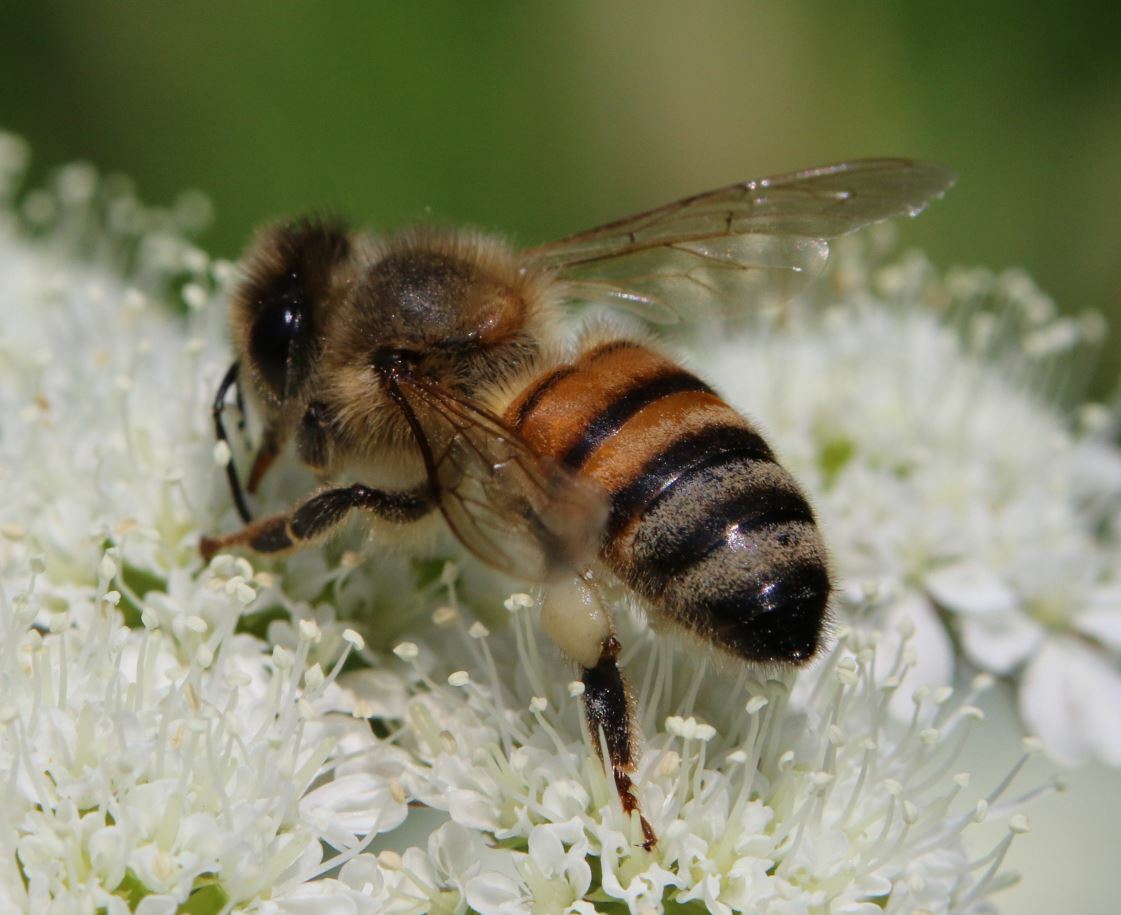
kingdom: Animalia
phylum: Arthropoda
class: Insecta
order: Hymenoptera
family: Apidae
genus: Apis
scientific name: Apis mellifera
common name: Honey bee
